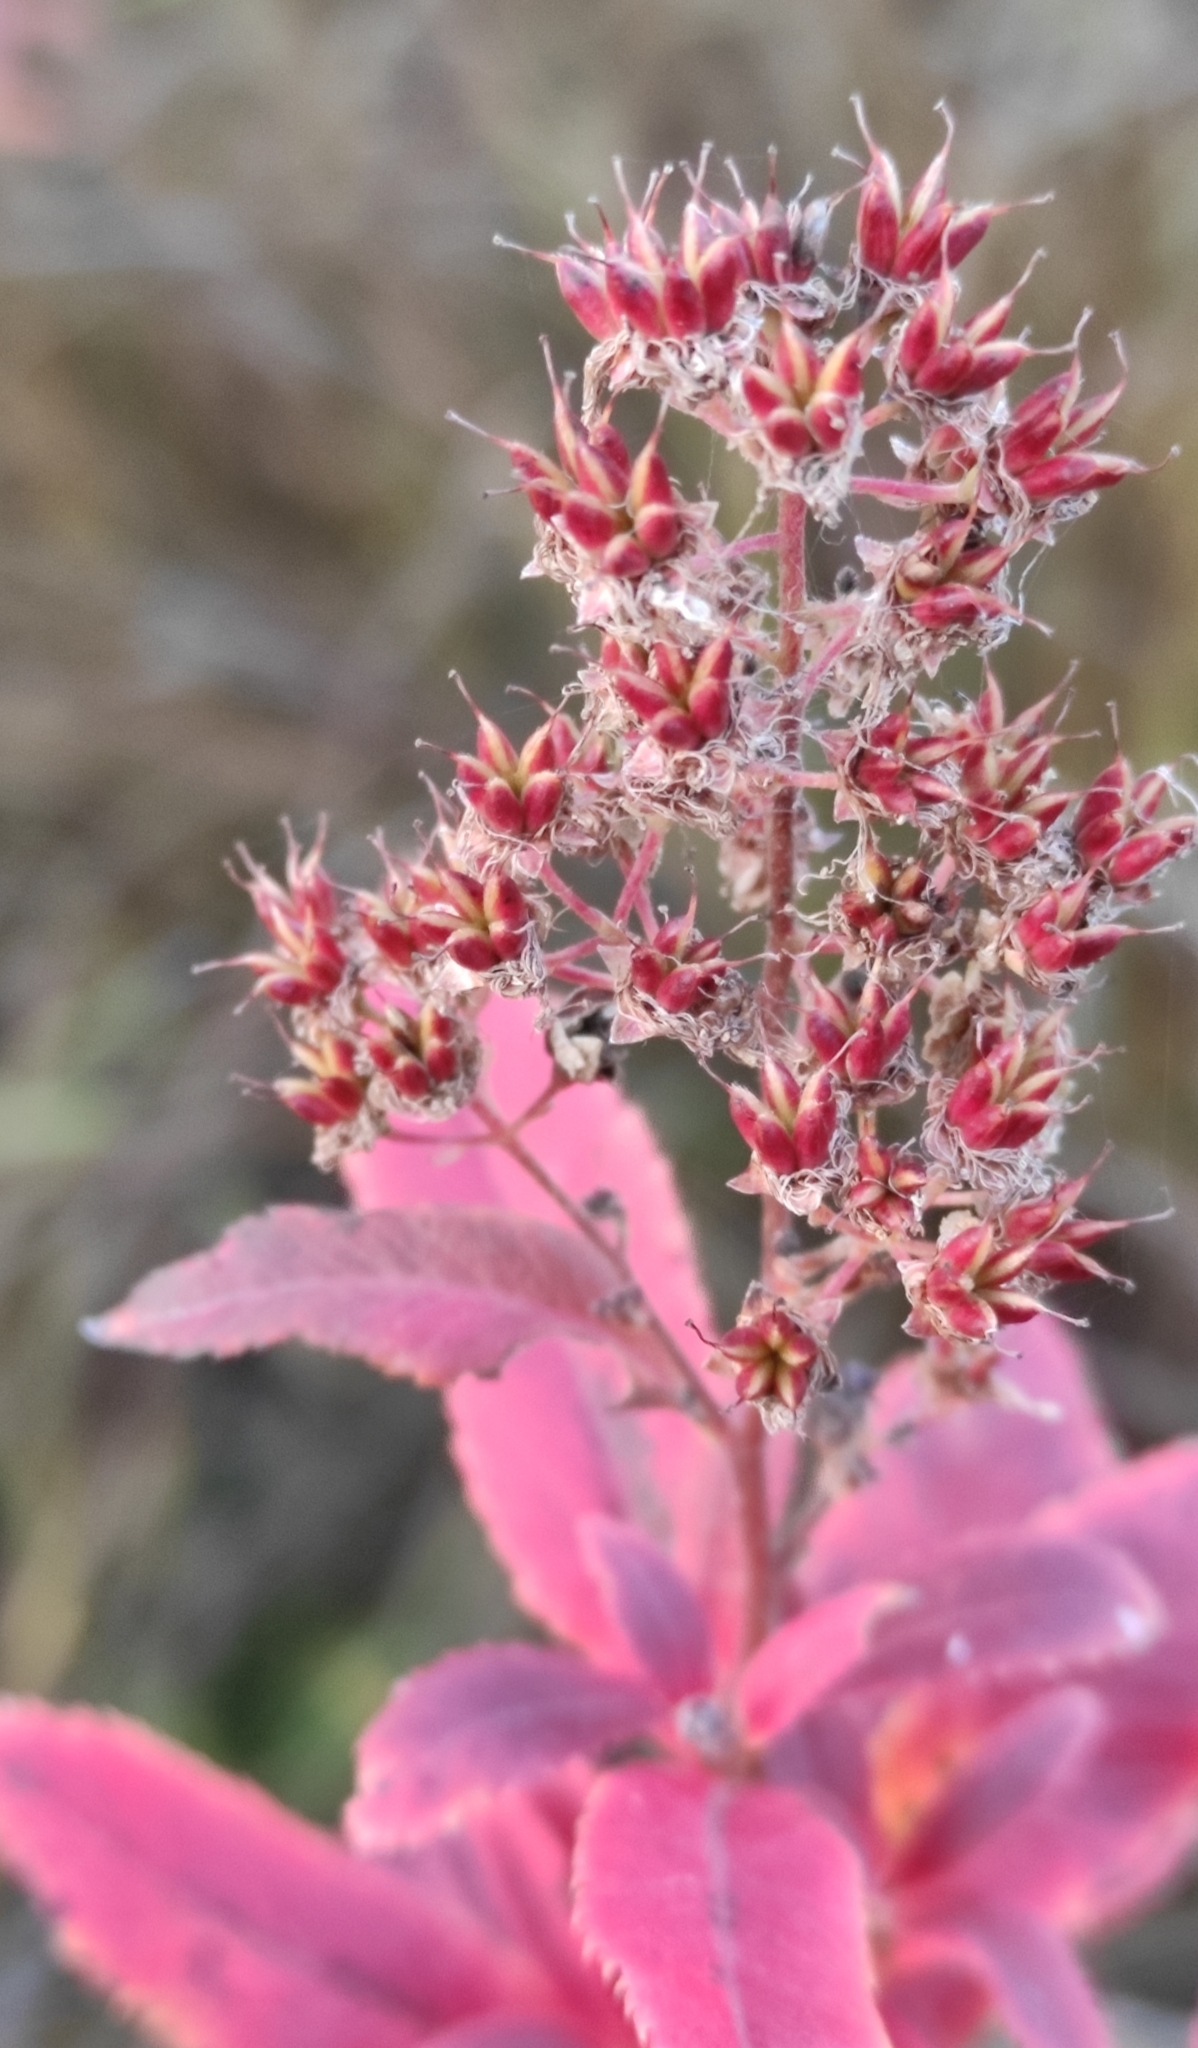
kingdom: Plantae
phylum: Tracheophyta
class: Magnoliopsida
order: Rosales
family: Rosaceae
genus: Spiraea
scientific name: Spiraea salicifolia
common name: Bridewort
